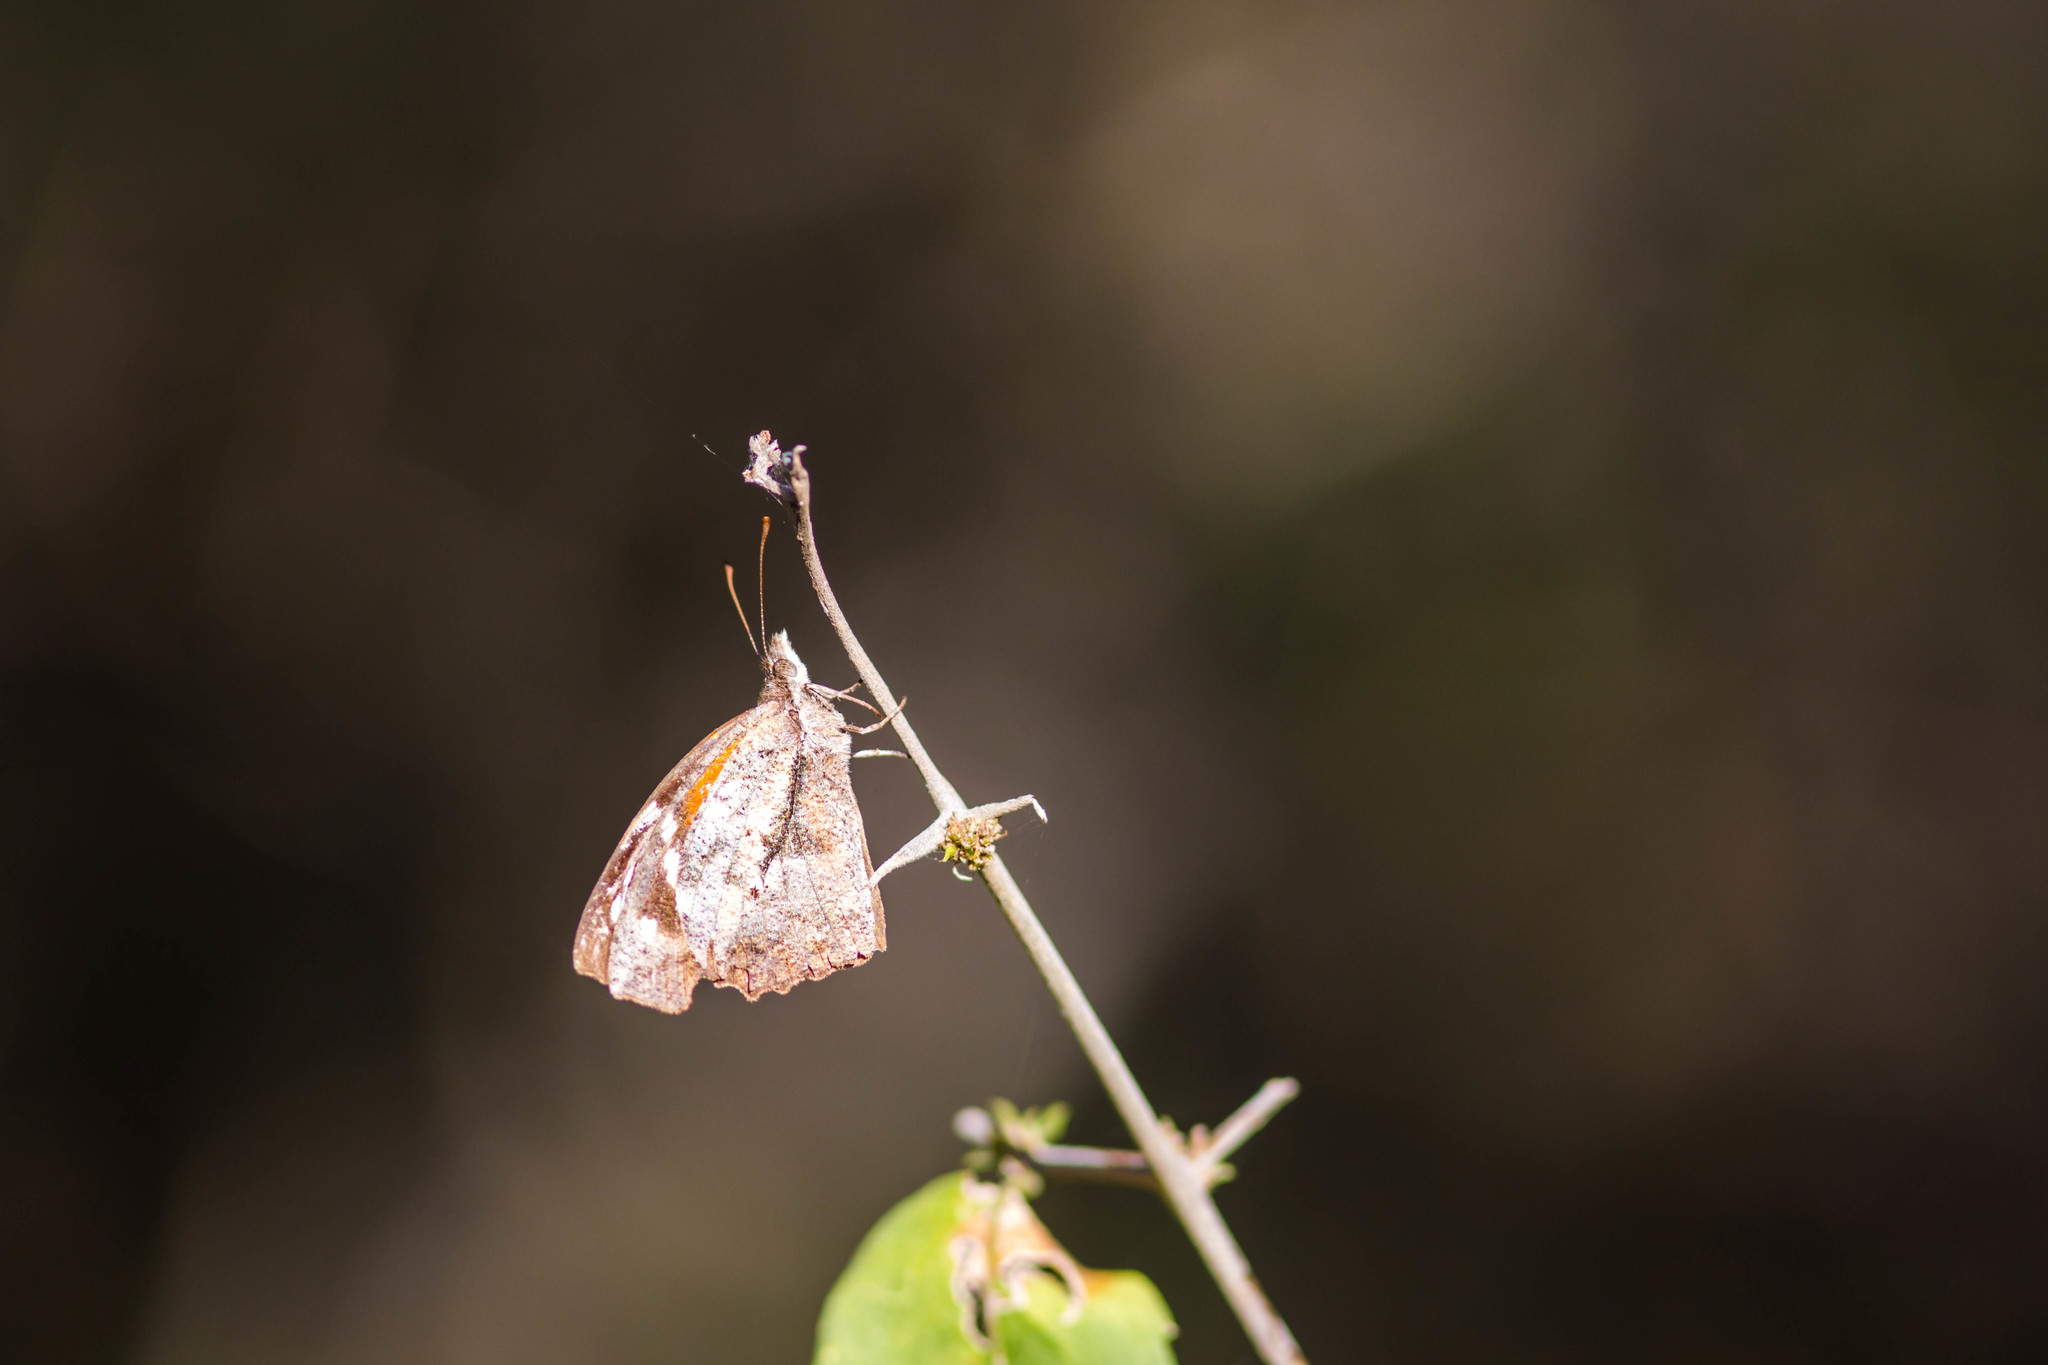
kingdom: Animalia
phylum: Arthropoda
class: Insecta
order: Lepidoptera
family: Nymphalidae
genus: Libytheana
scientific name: Libytheana carinenta
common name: American snout
